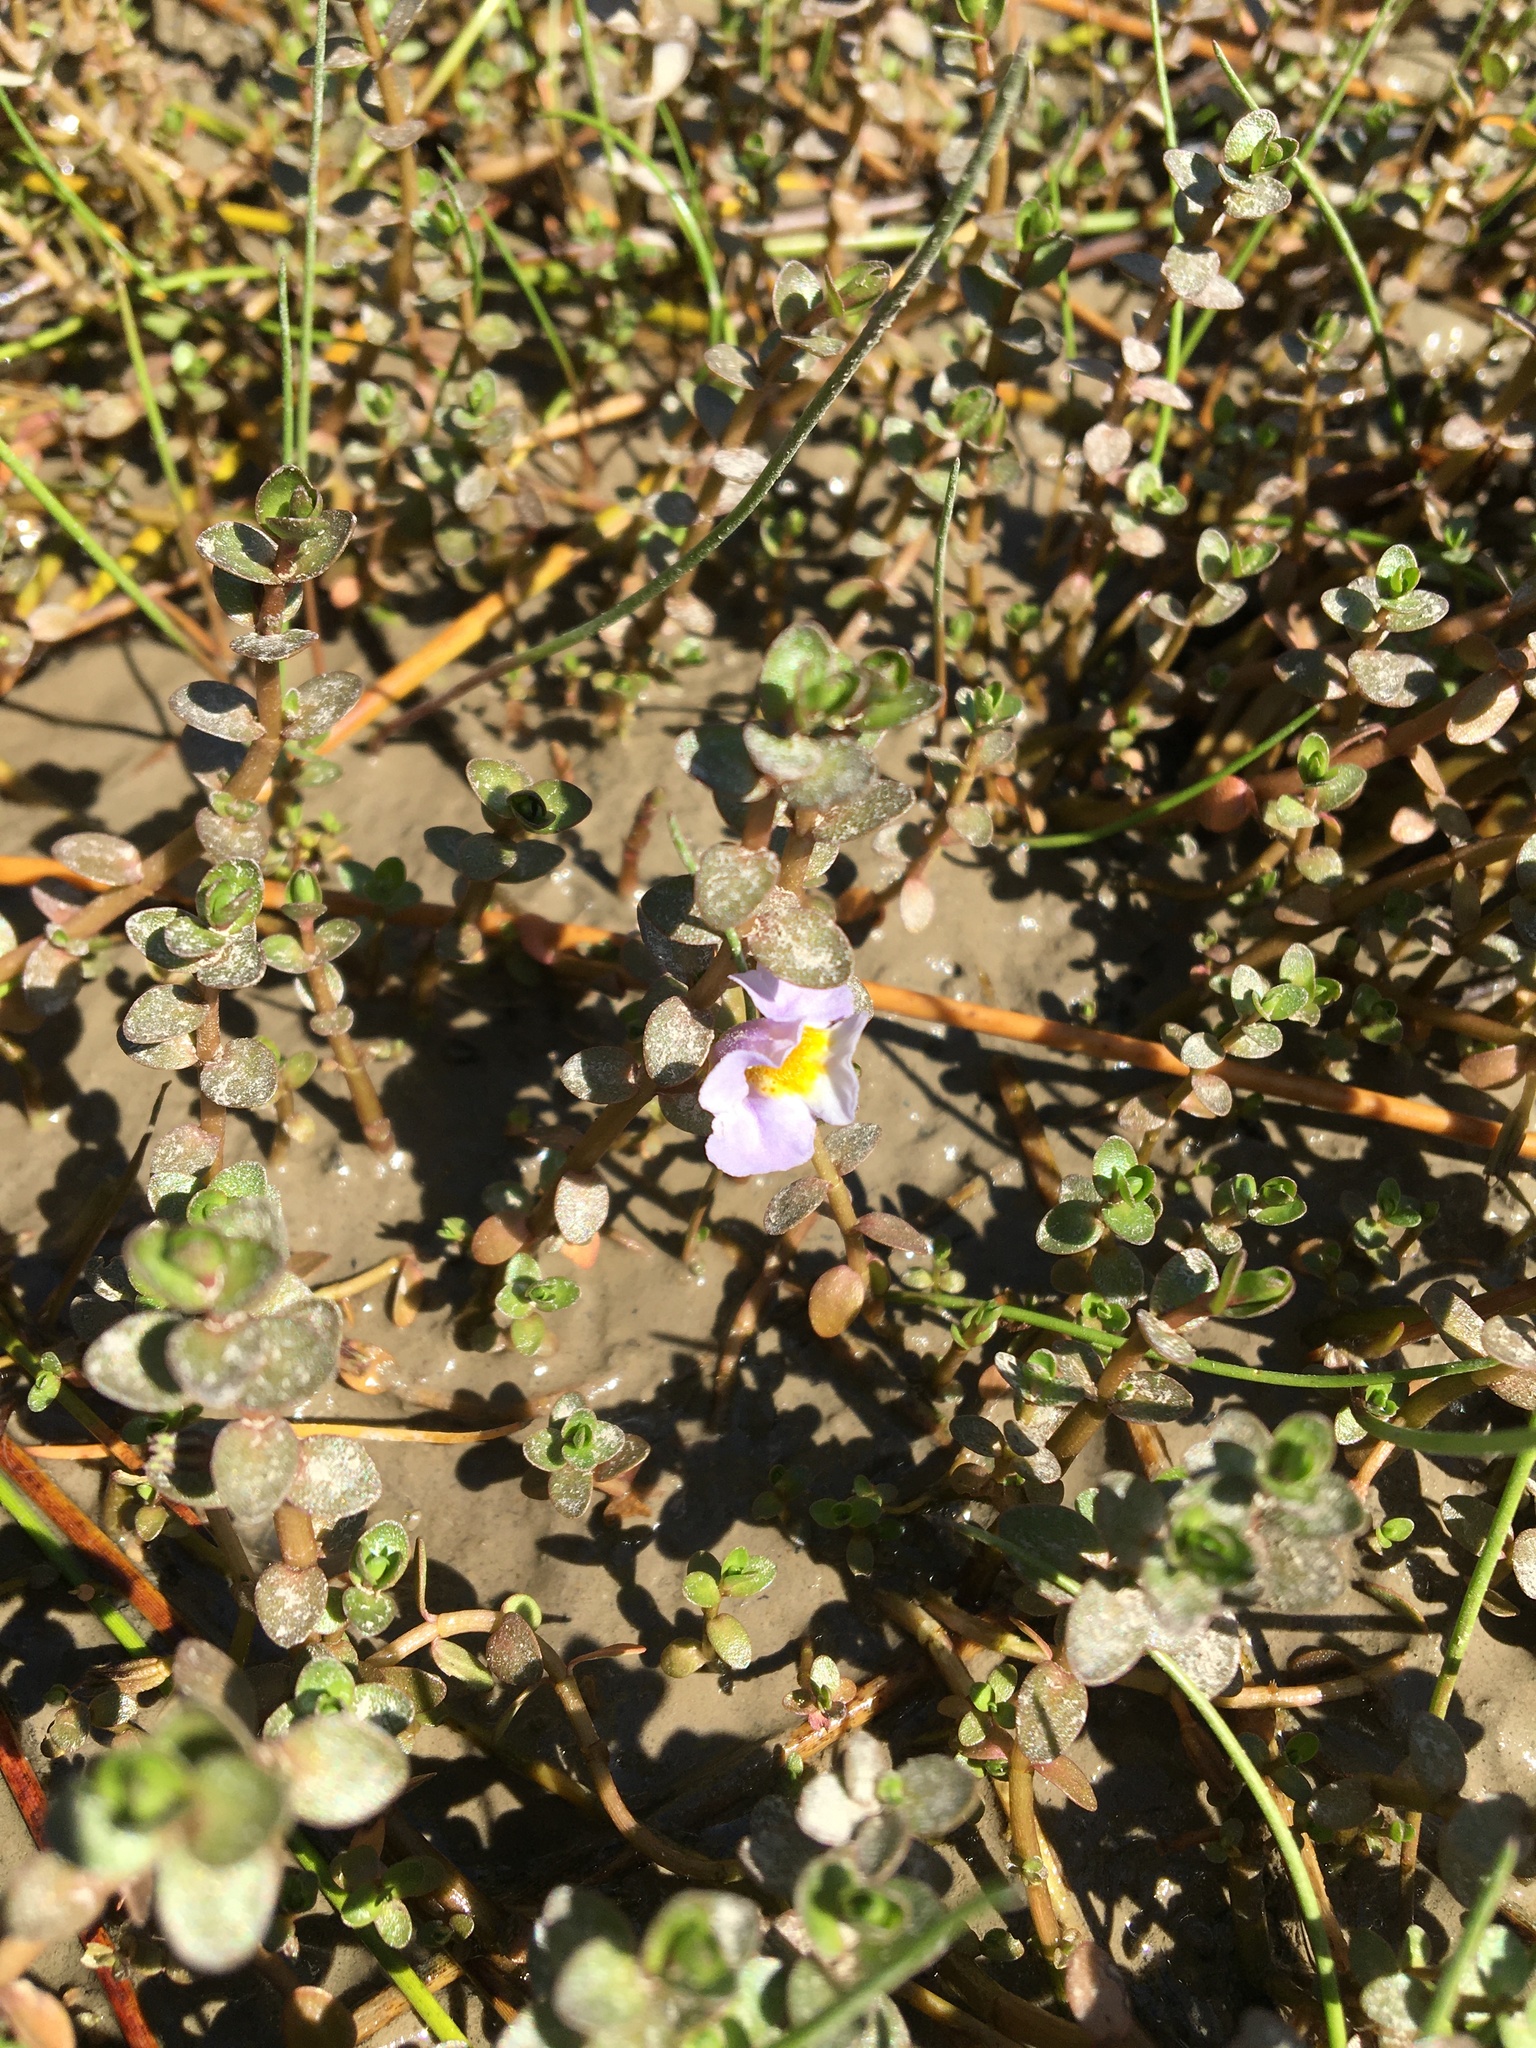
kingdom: Plantae
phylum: Tracheophyta
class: Magnoliopsida
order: Lamiales
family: Phrymaceae
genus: Thyridia
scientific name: Thyridia repens
